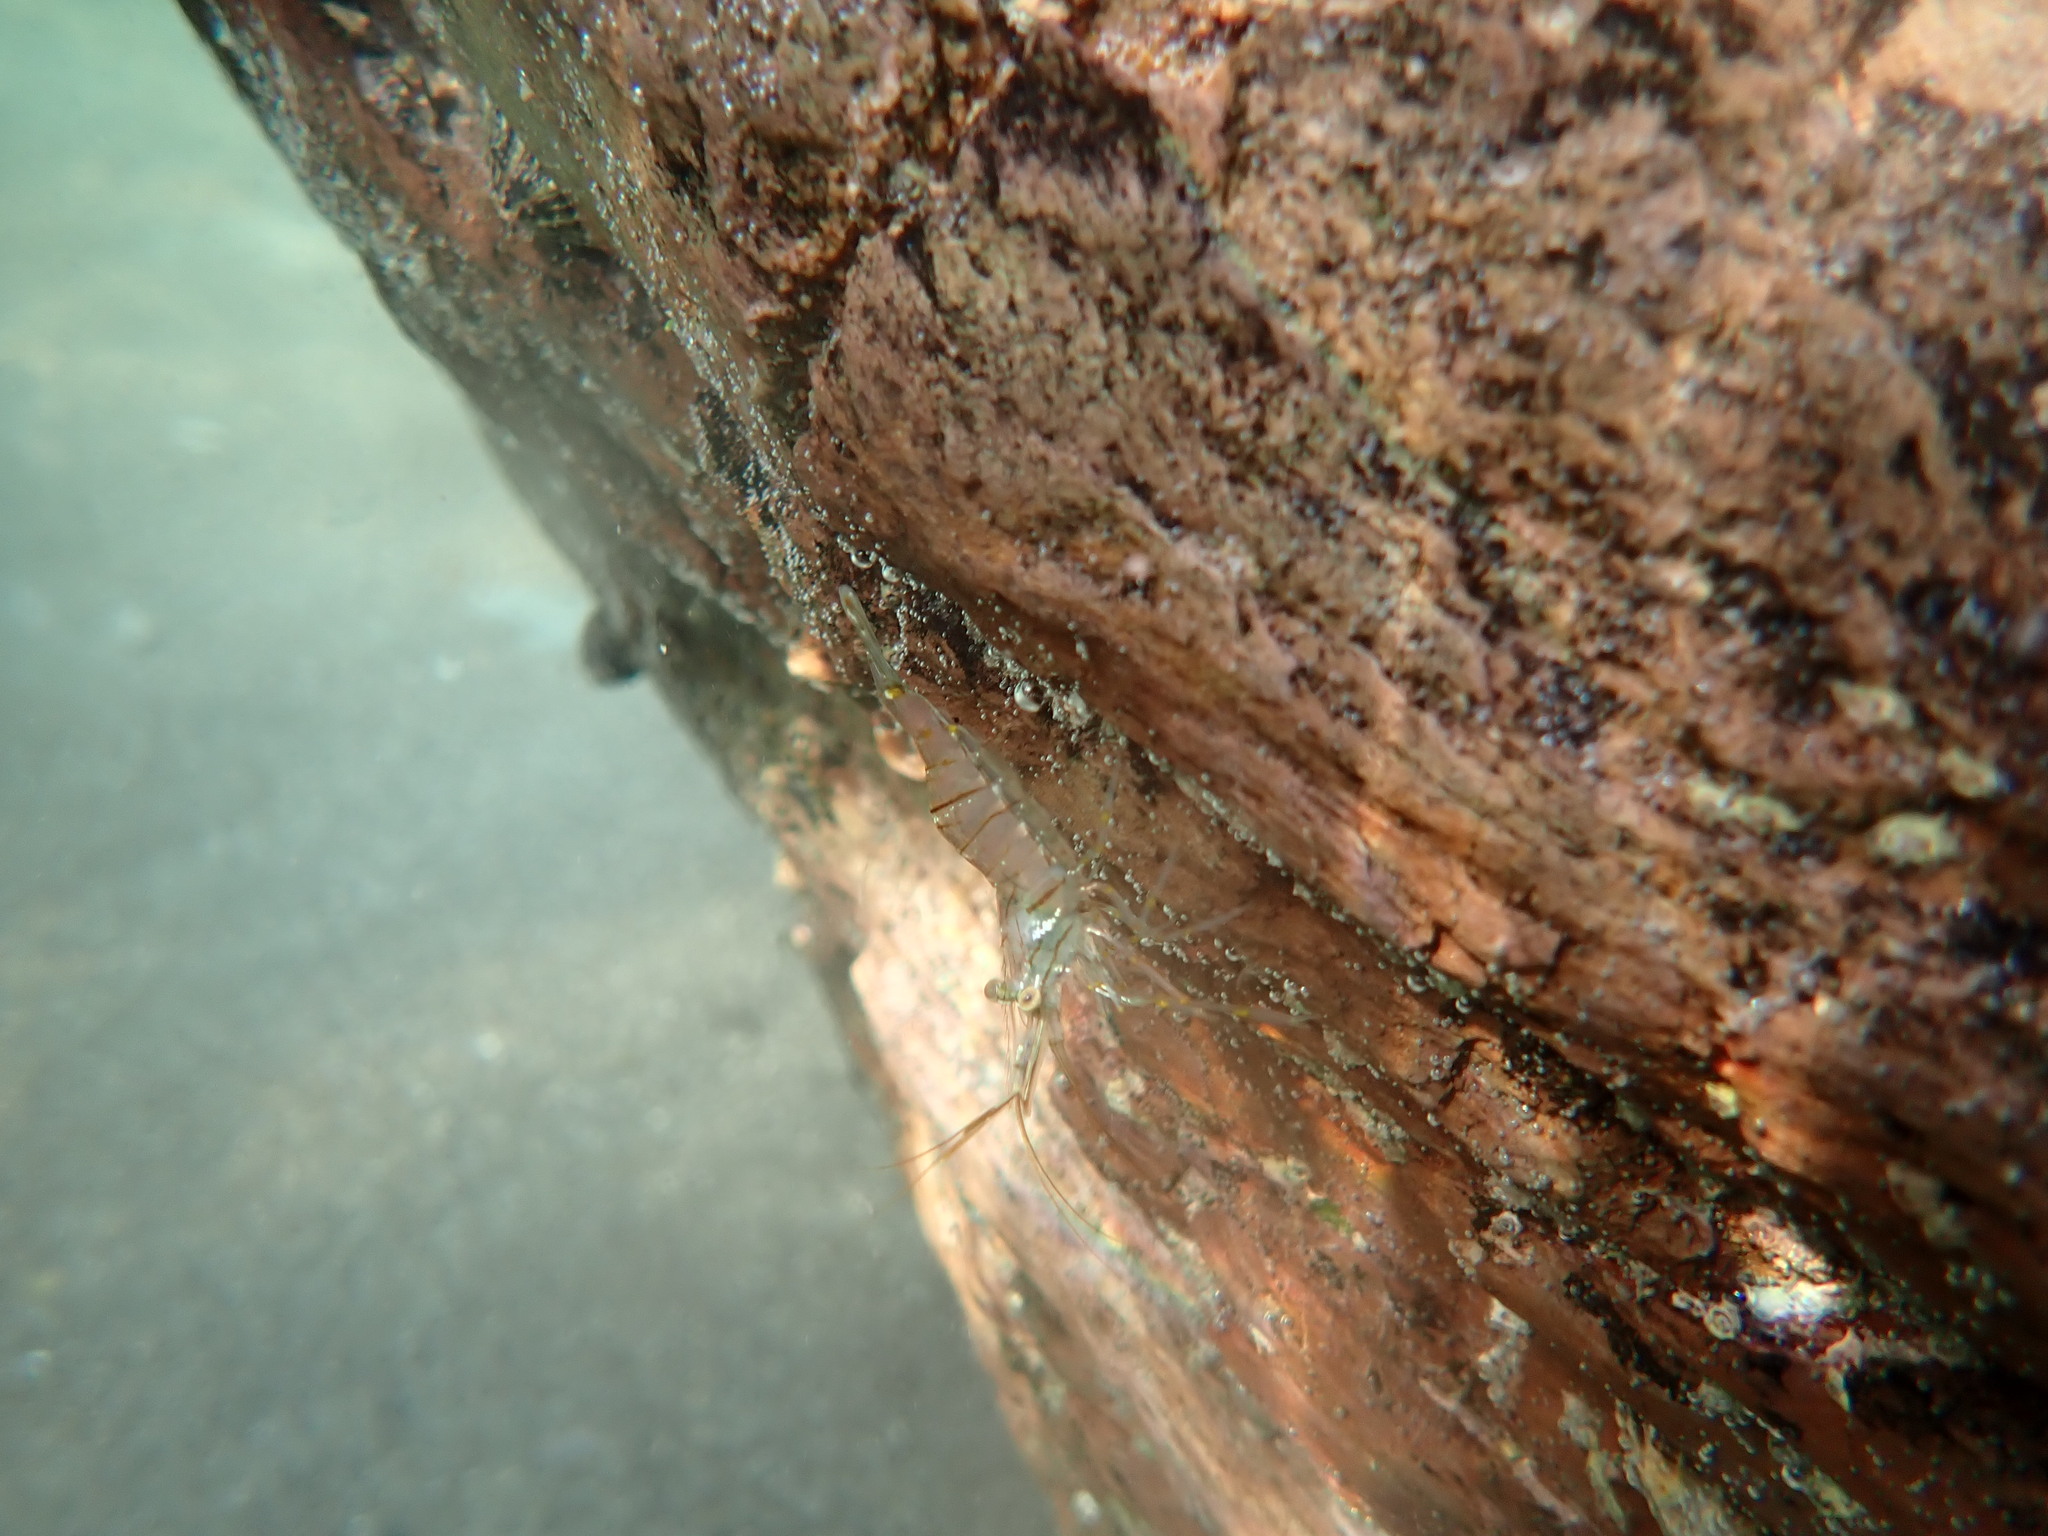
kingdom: Animalia
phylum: Arthropoda
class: Malacostraca
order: Decapoda
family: Palaemonidae
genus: Palaemon
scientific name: Palaemon elegans
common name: Grass prawm
